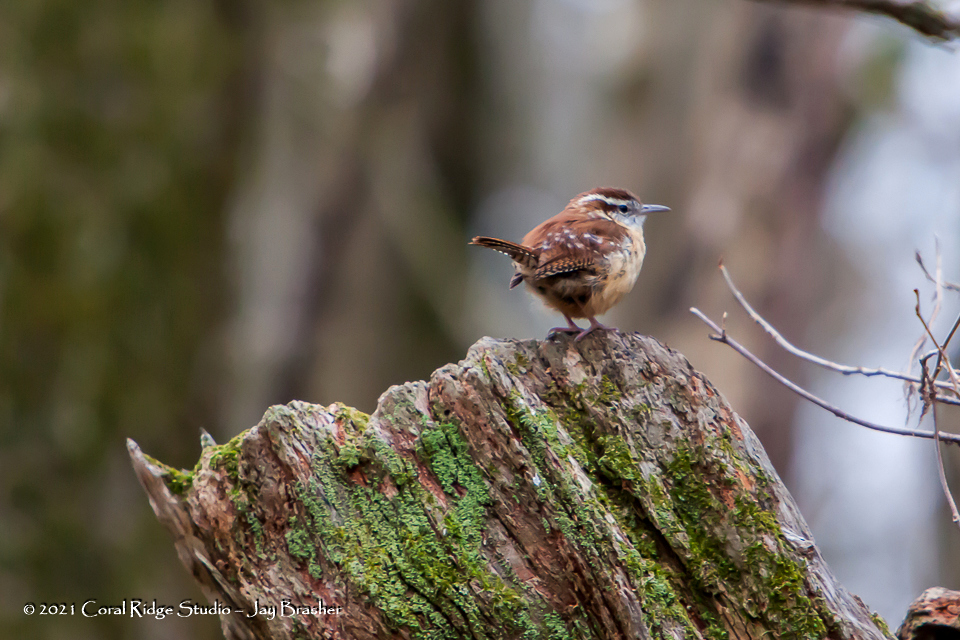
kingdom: Animalia
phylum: Chordata
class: Aves
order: Passeriformes
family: Troglodytidae
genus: Thryothorus
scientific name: Thryothorus ludovicianus
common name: Carolina wren
